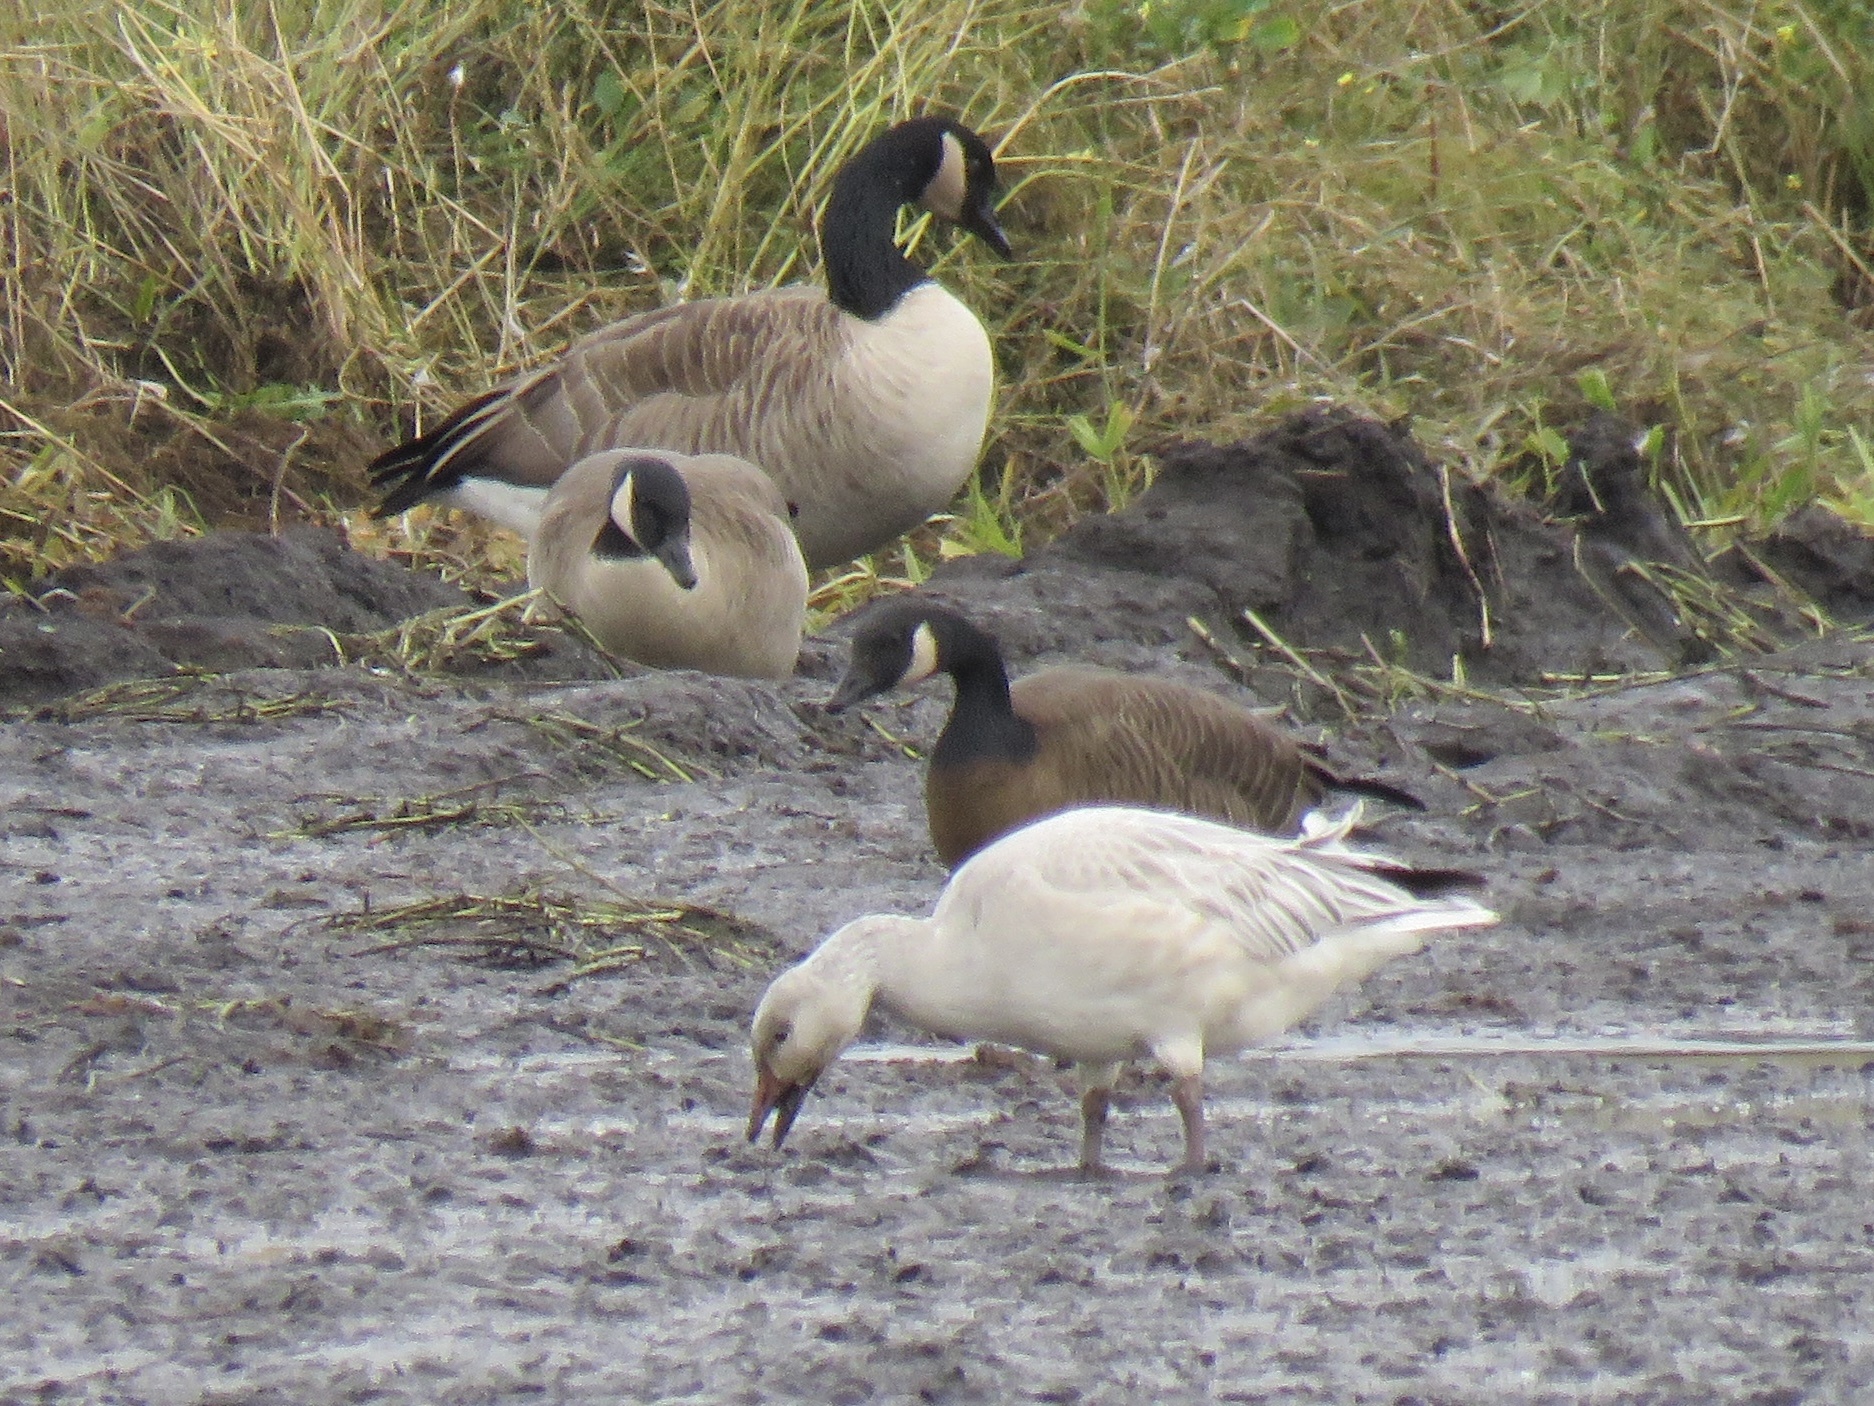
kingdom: Animalia
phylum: Chordata
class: Aves
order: Anseriformes
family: Anatidae
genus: Anser
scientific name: Anser caerulescens
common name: Snow goose
